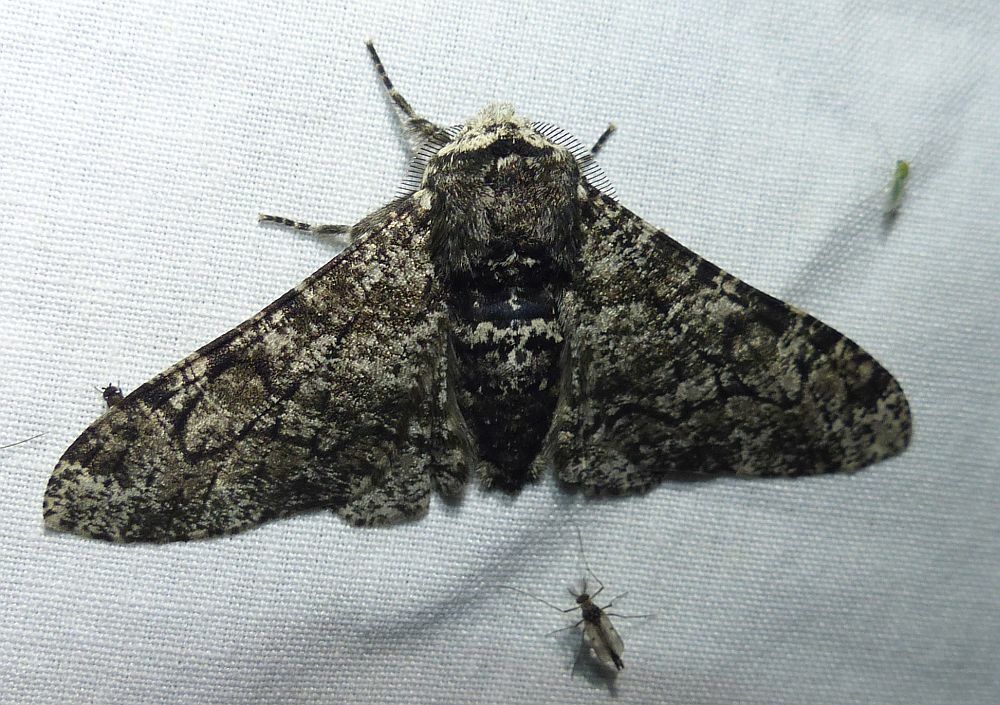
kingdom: Animalia
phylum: Arthropoda
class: Insecta
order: Lepidoptera
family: Geometridae
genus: Biston
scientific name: Biston betularia
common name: Peppered moth
